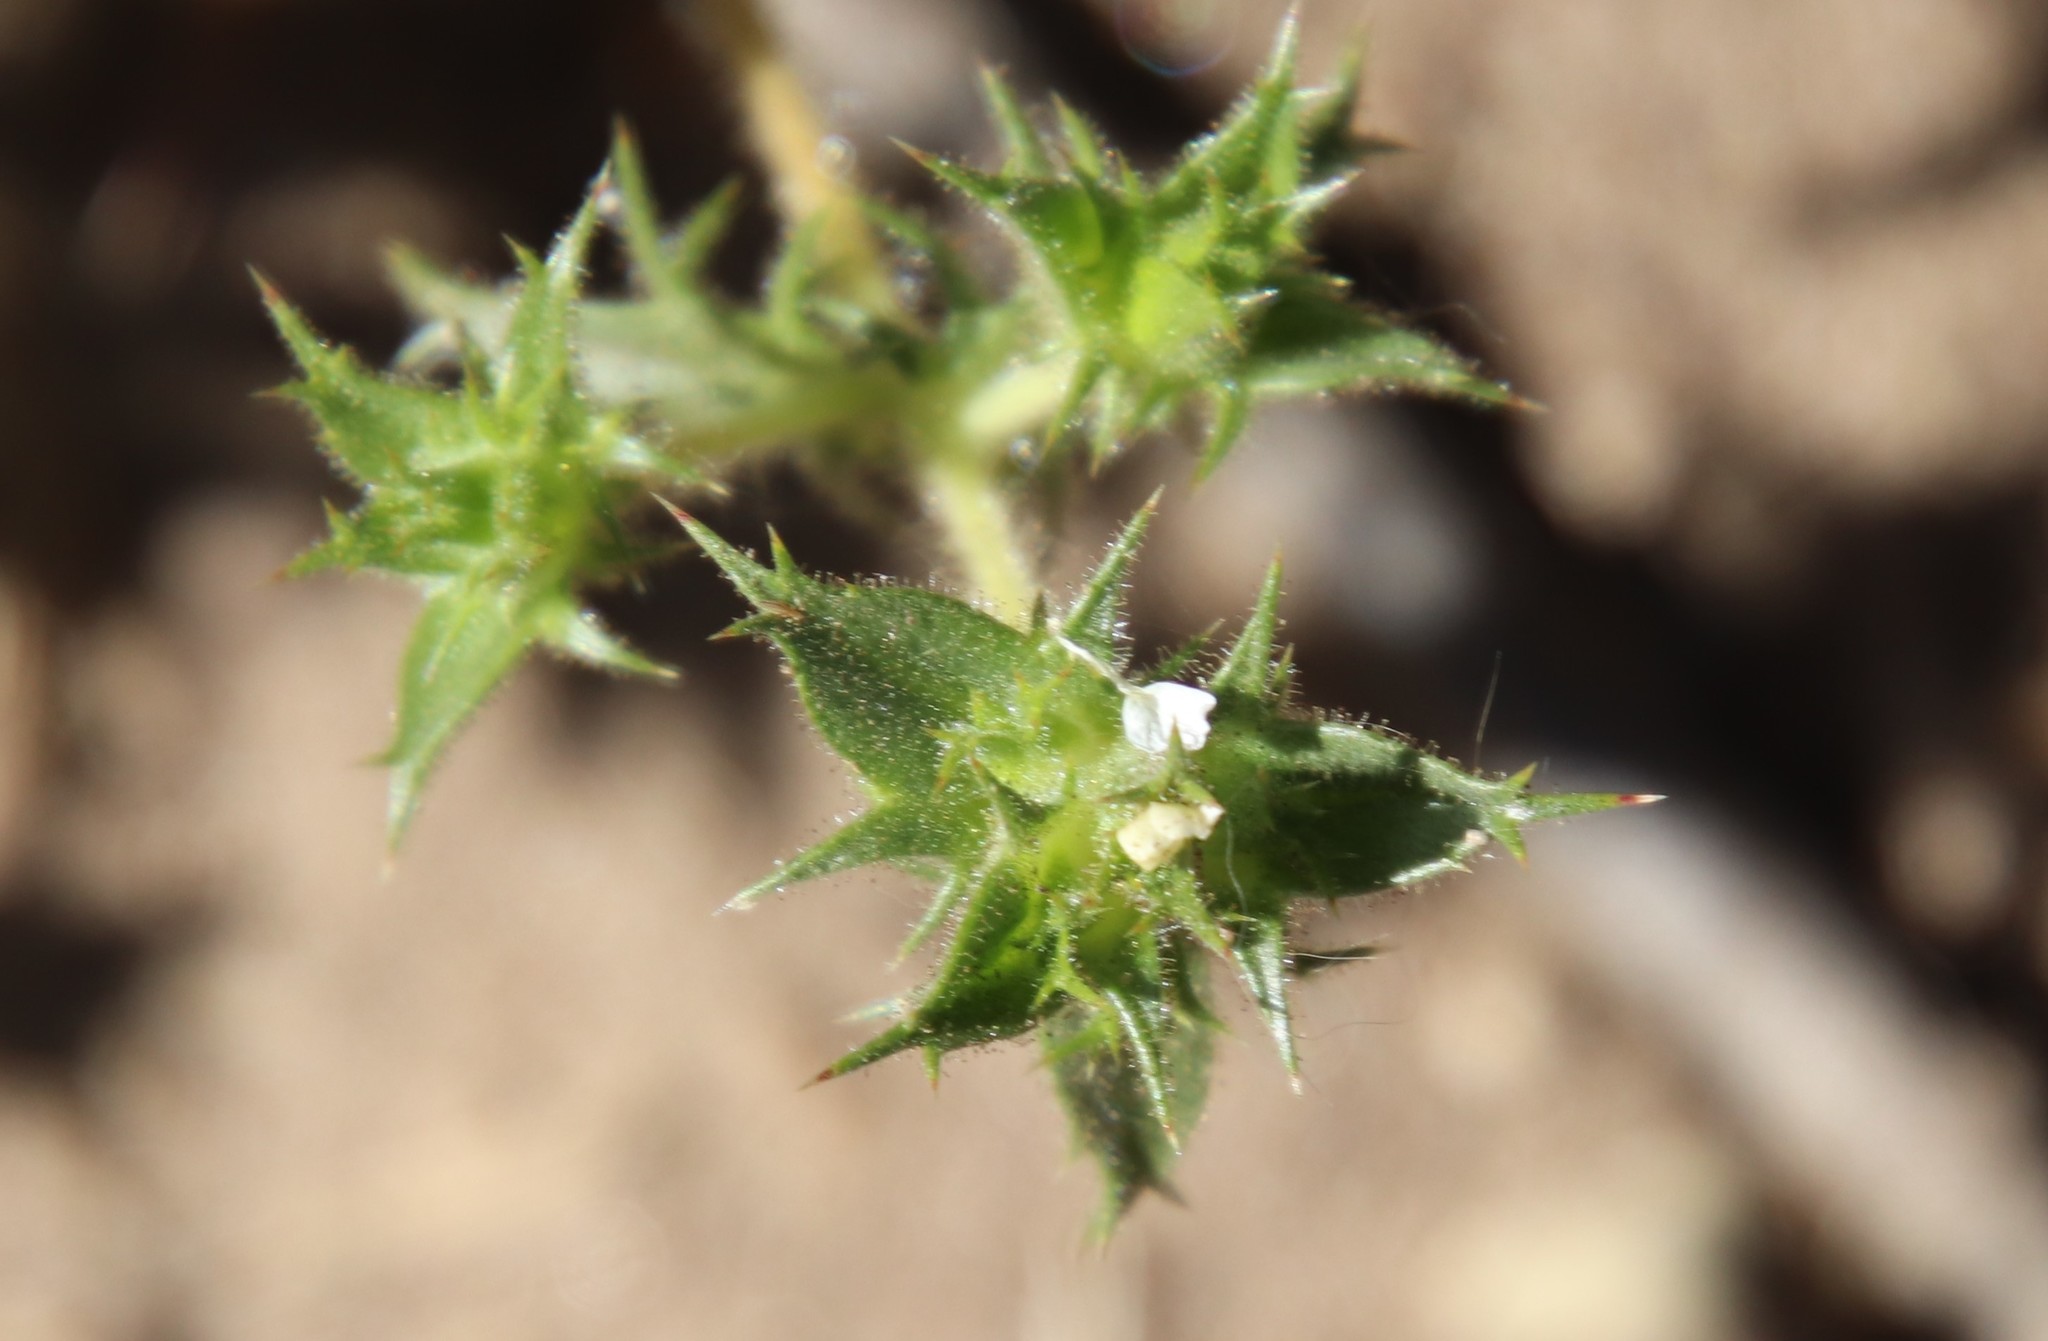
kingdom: Plantae
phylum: Tracheophyta
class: Magnoliopsida
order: Ericales
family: Polemoniaceae
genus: Navarretia
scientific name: Navarretia atractyloides
